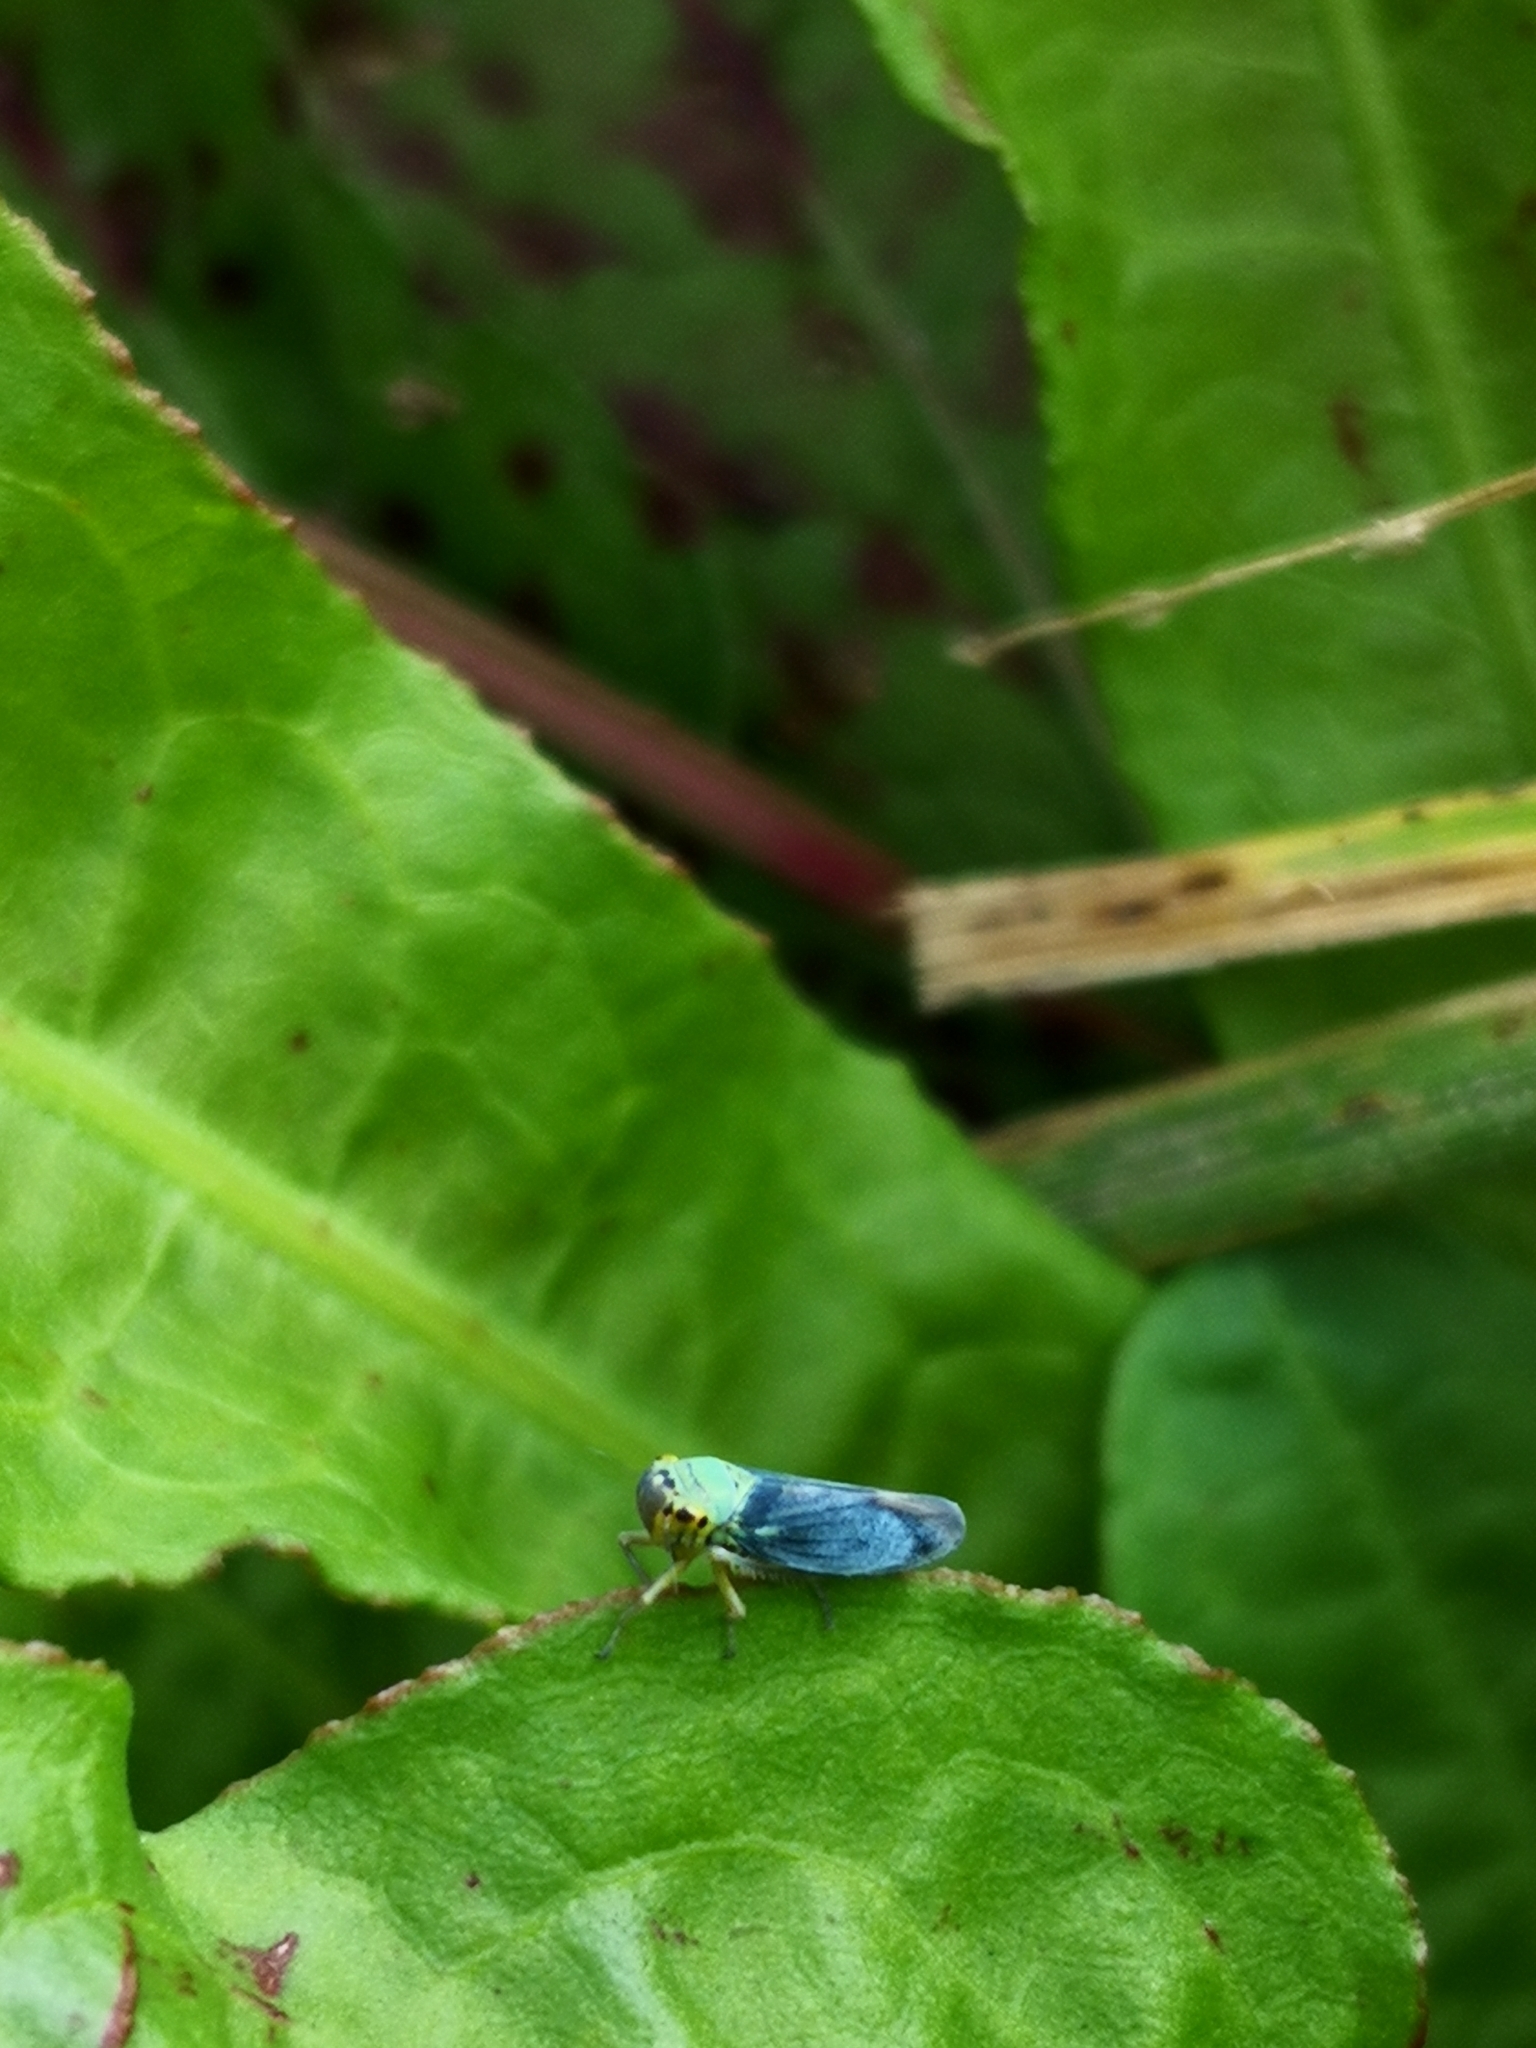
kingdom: Animalia
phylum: Arthropoda
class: Insecta
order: Hemiptera
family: Cicadellidae
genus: Cicadella
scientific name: Cicadella viridis
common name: Leafhopper
